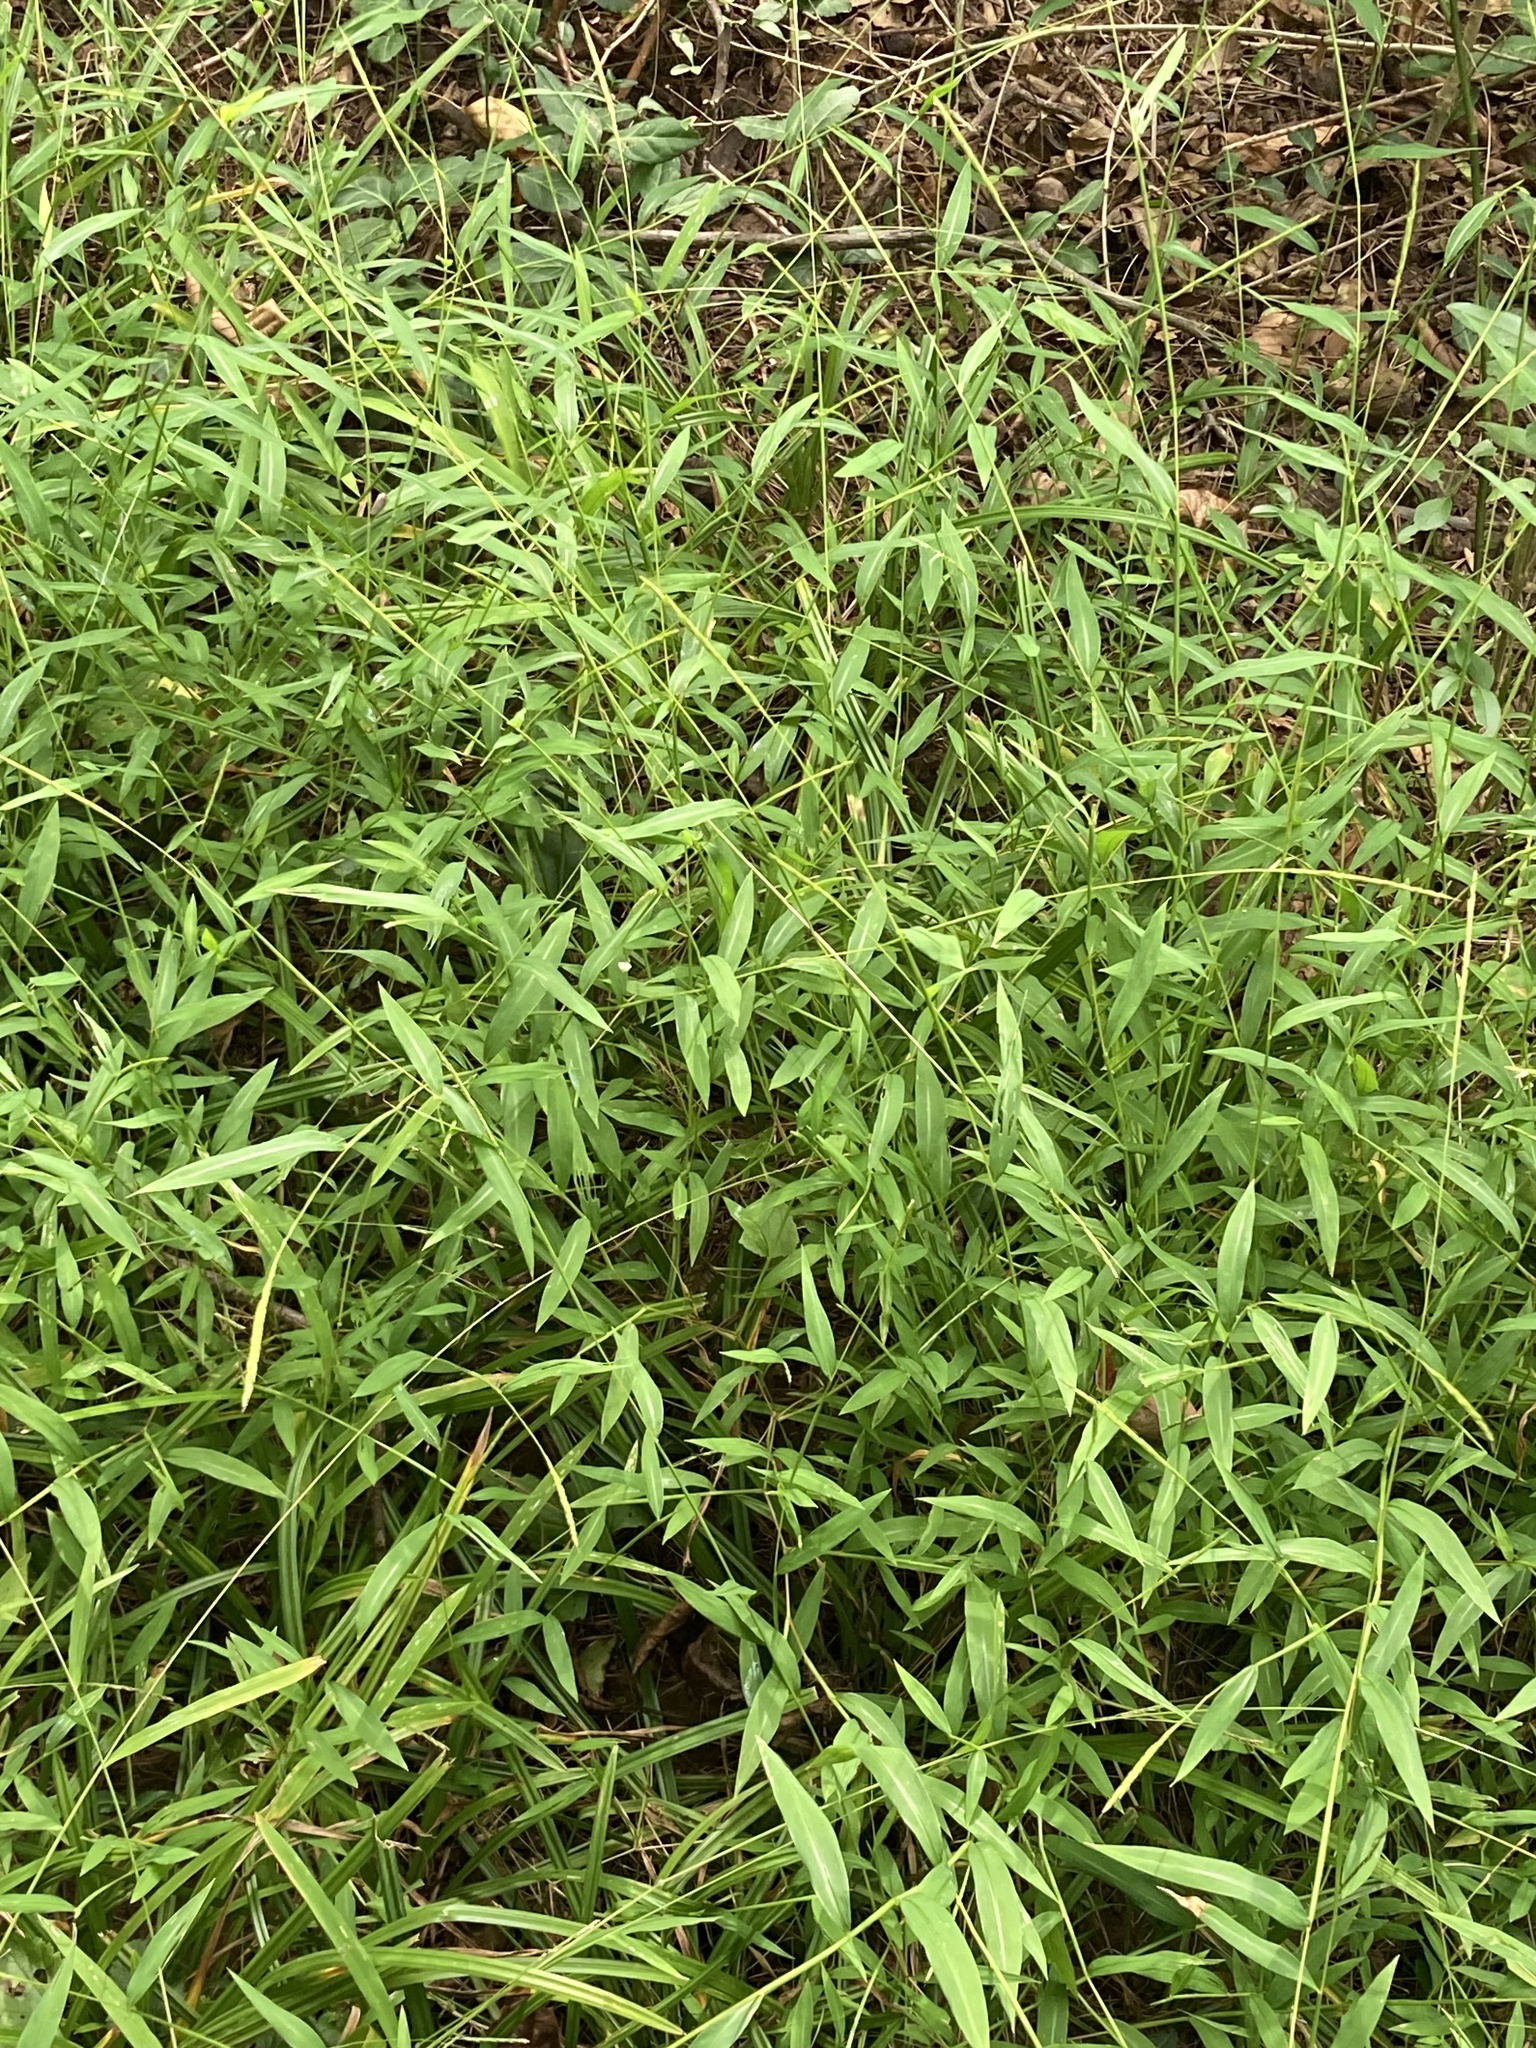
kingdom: Plantae
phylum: Tracheophyta
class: Liliopsida
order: Poales
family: Poaceae
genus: Microstegium
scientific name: Microstegium vimineum
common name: Japanese stiltgrass
